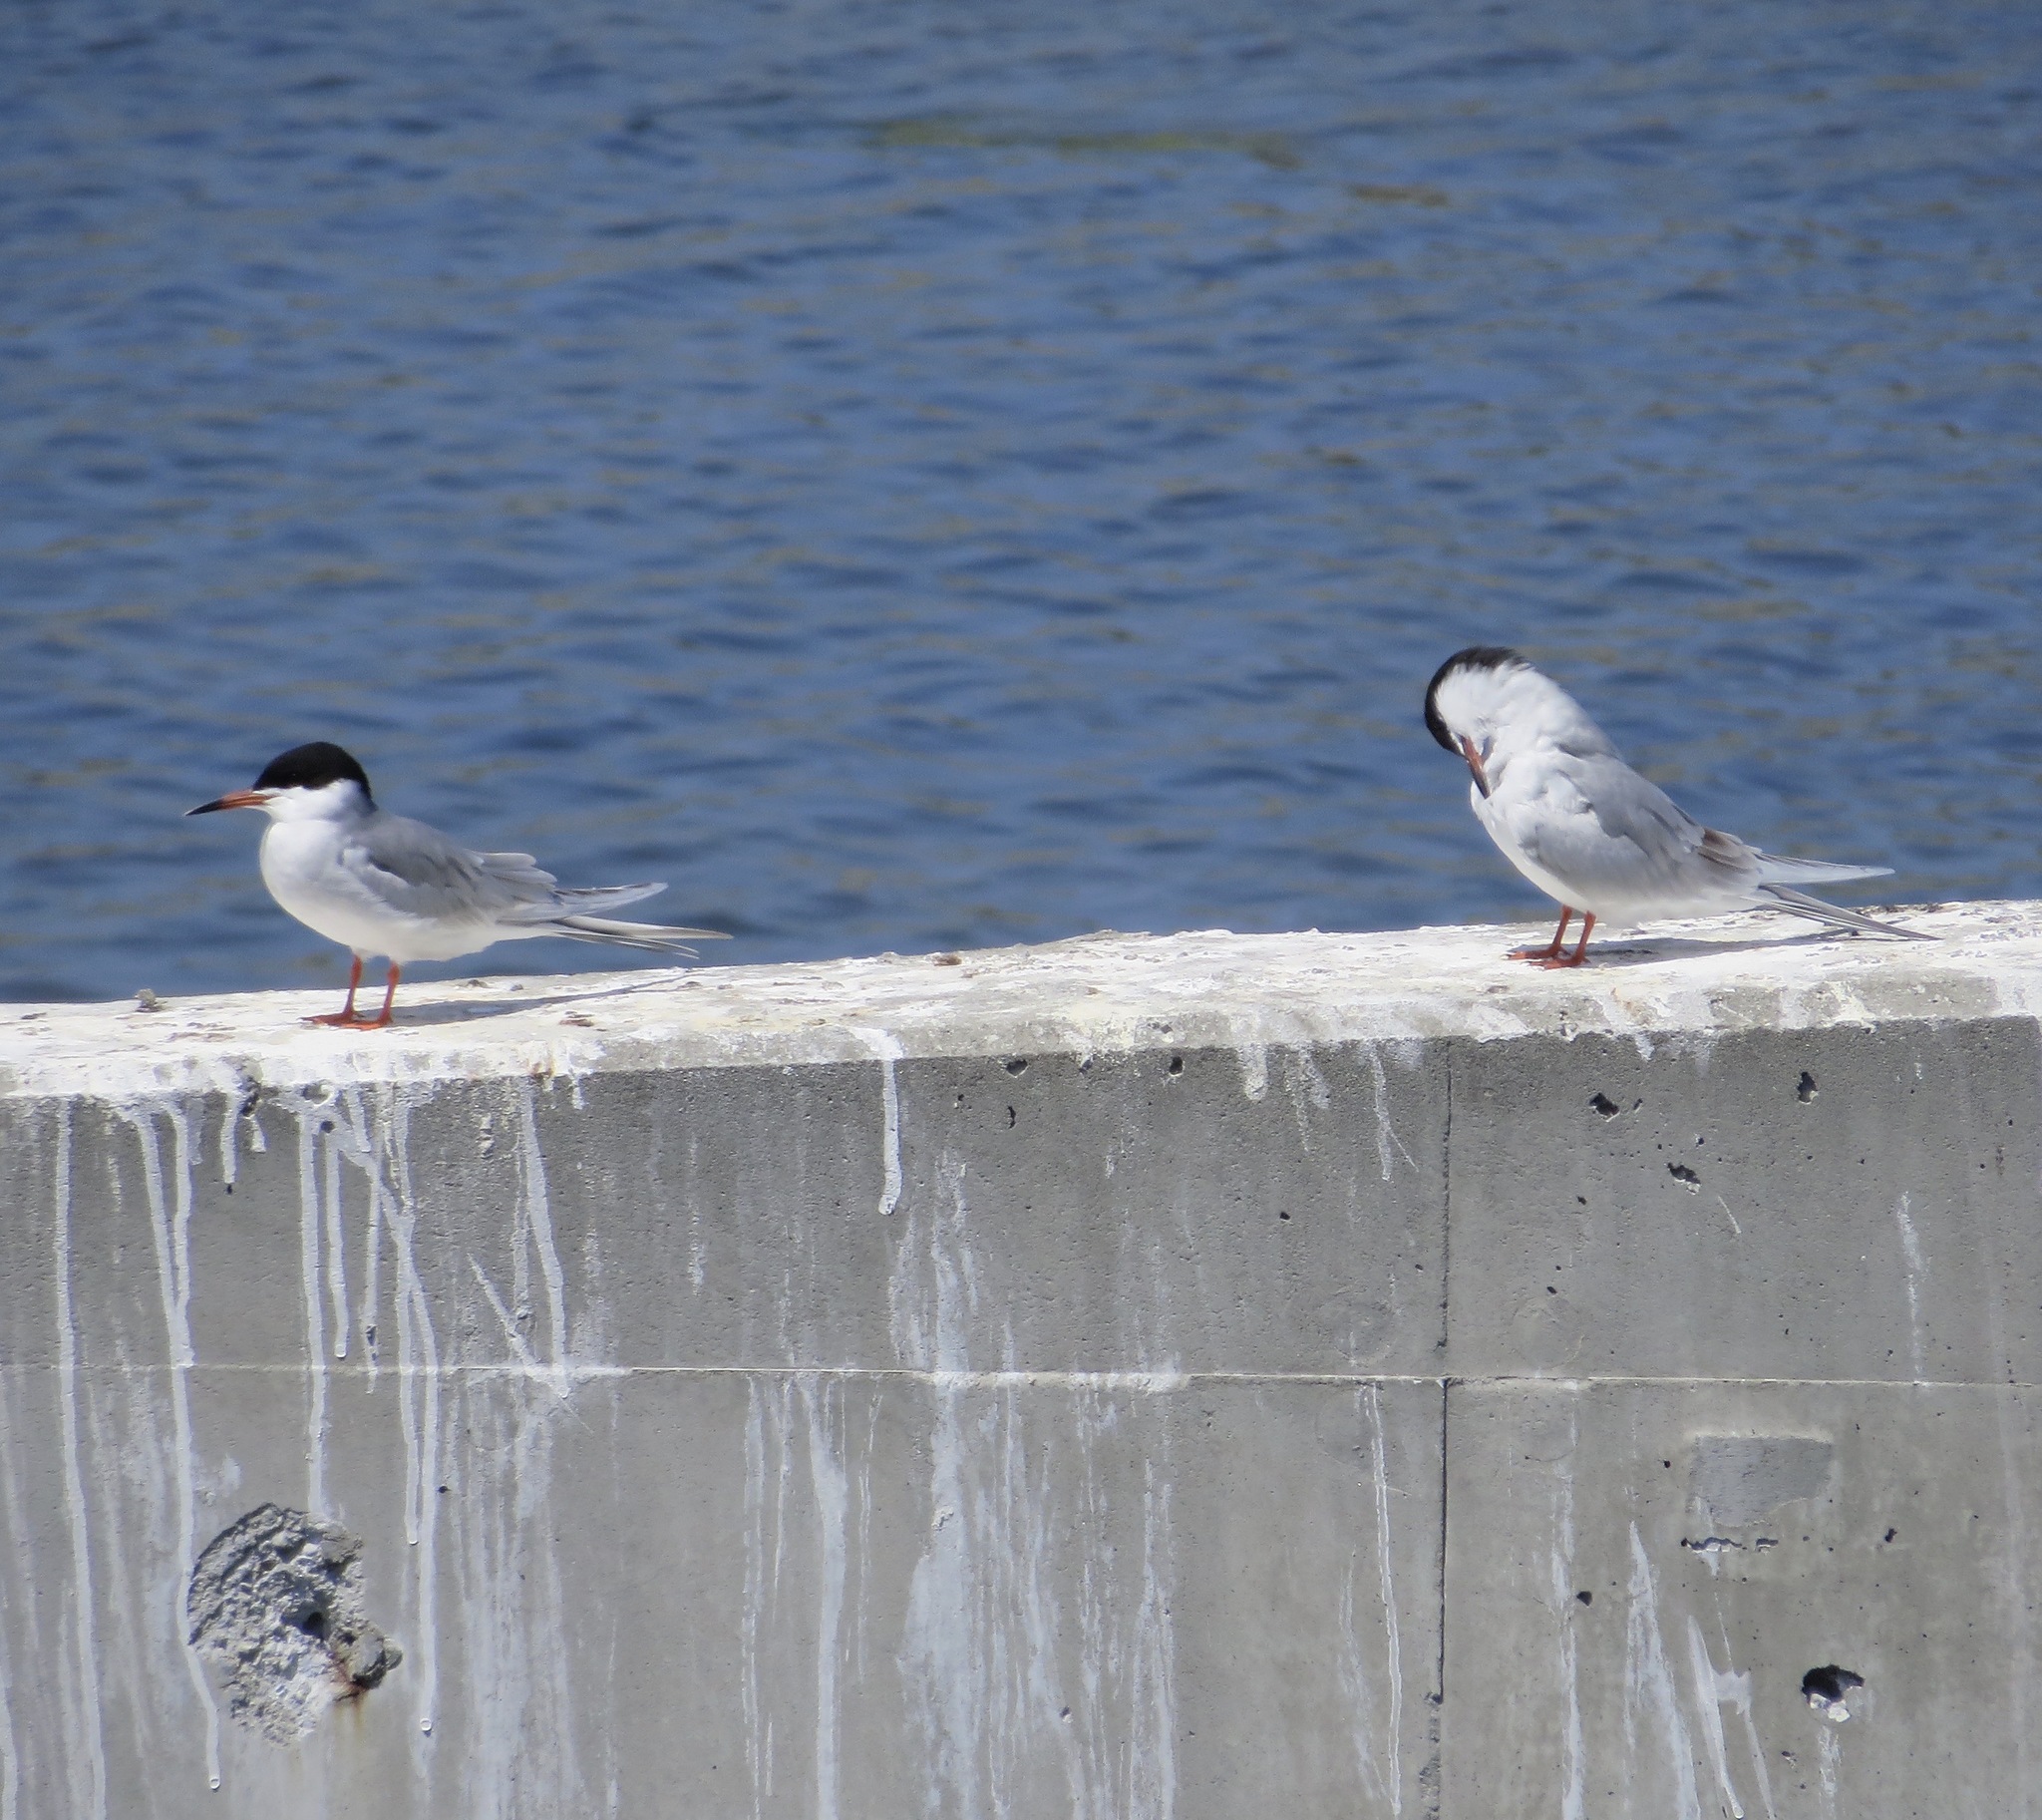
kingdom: Animalia
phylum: Chordata
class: Aves
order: Charadriiformes
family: Laridae
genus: Sterna
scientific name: Sterna forsteri
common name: Forster's tern
